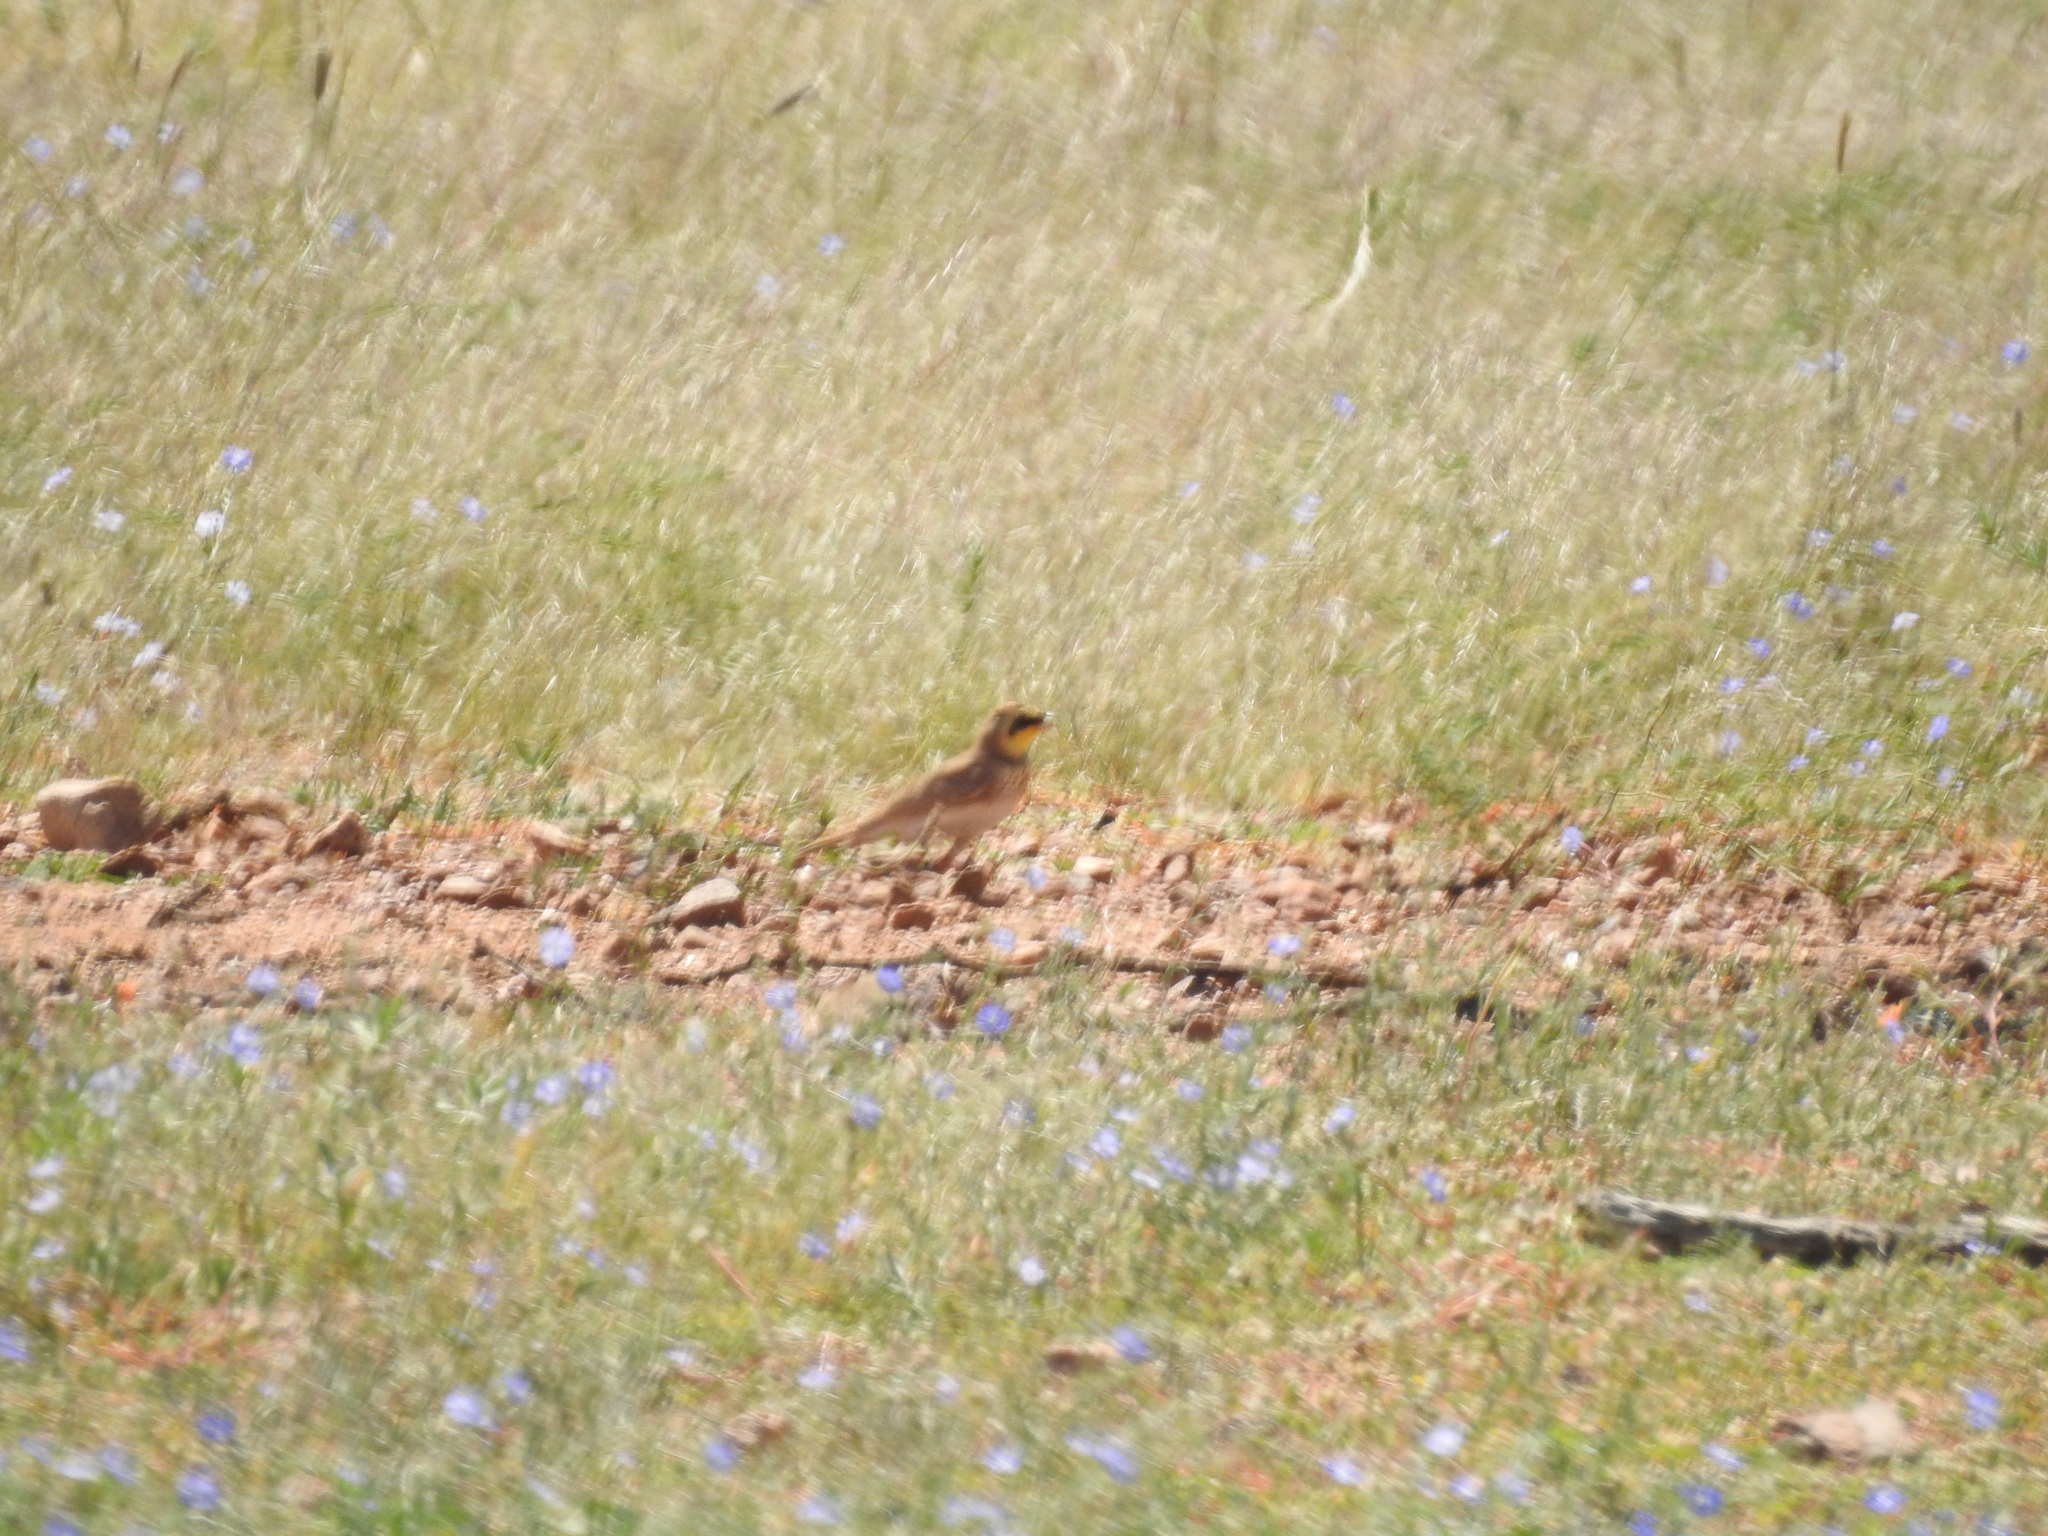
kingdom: Animalia
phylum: Chordata
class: Aves
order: Passeriformes
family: Alaudidae
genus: Eremophila
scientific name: Eremophila alpestris
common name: Horned lark
